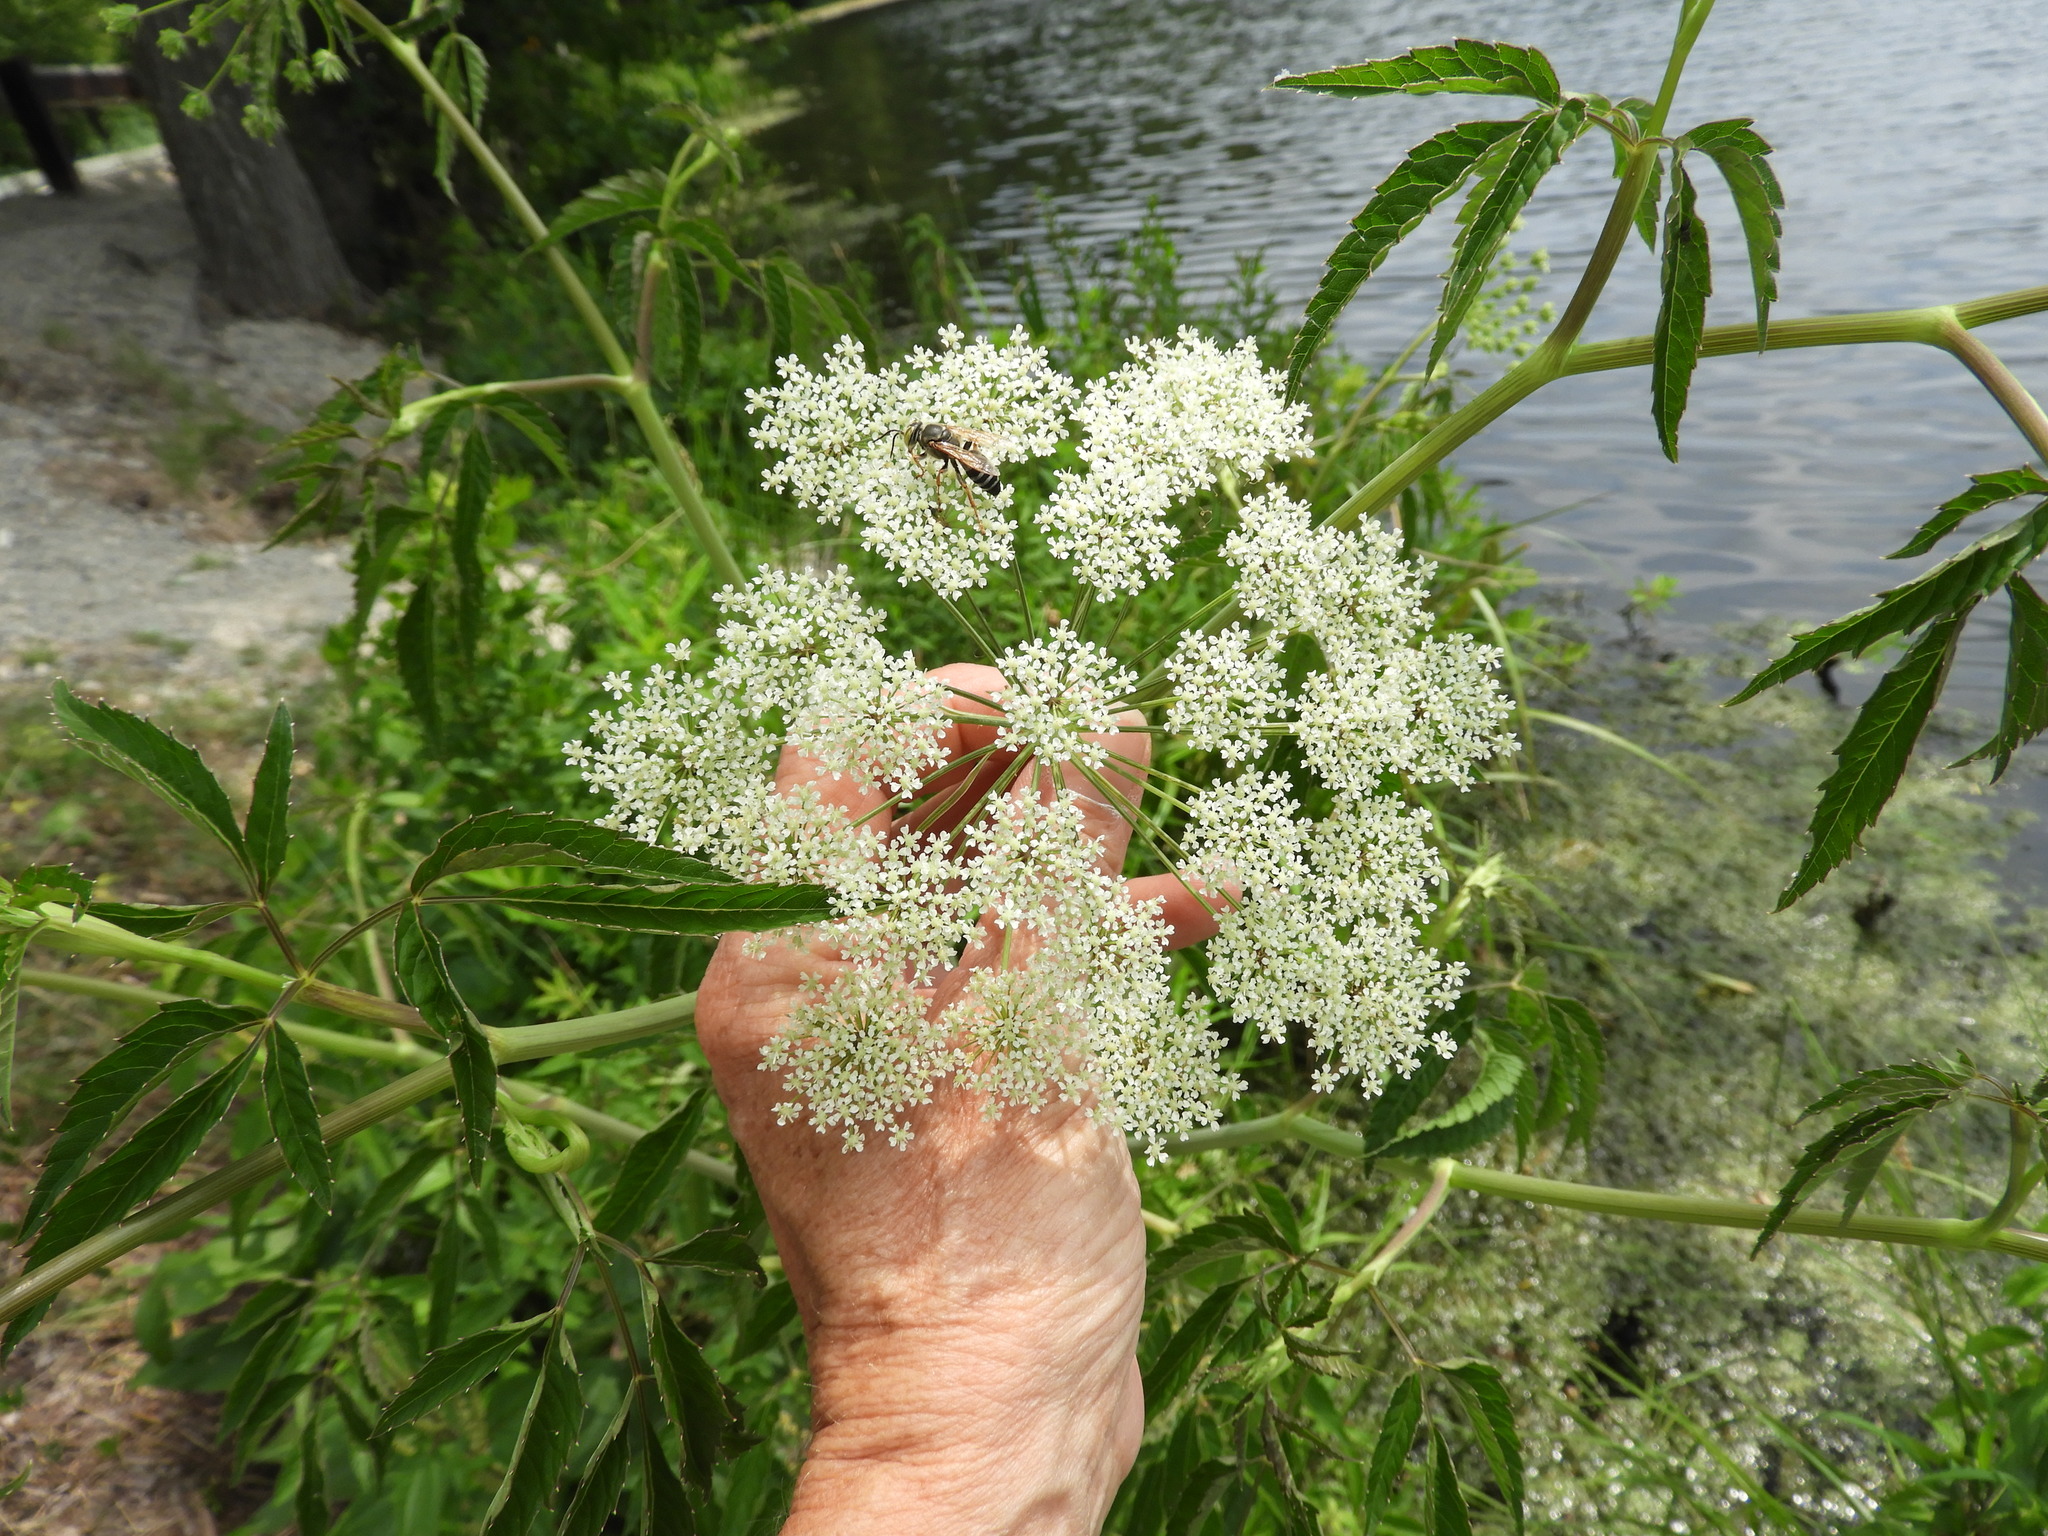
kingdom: Plantae
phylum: Tracheophyta
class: Magnoliopsida
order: Apiales
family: Apiaceae
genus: Cicuta
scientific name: Cicuta maculata
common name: Spotted cowbane
